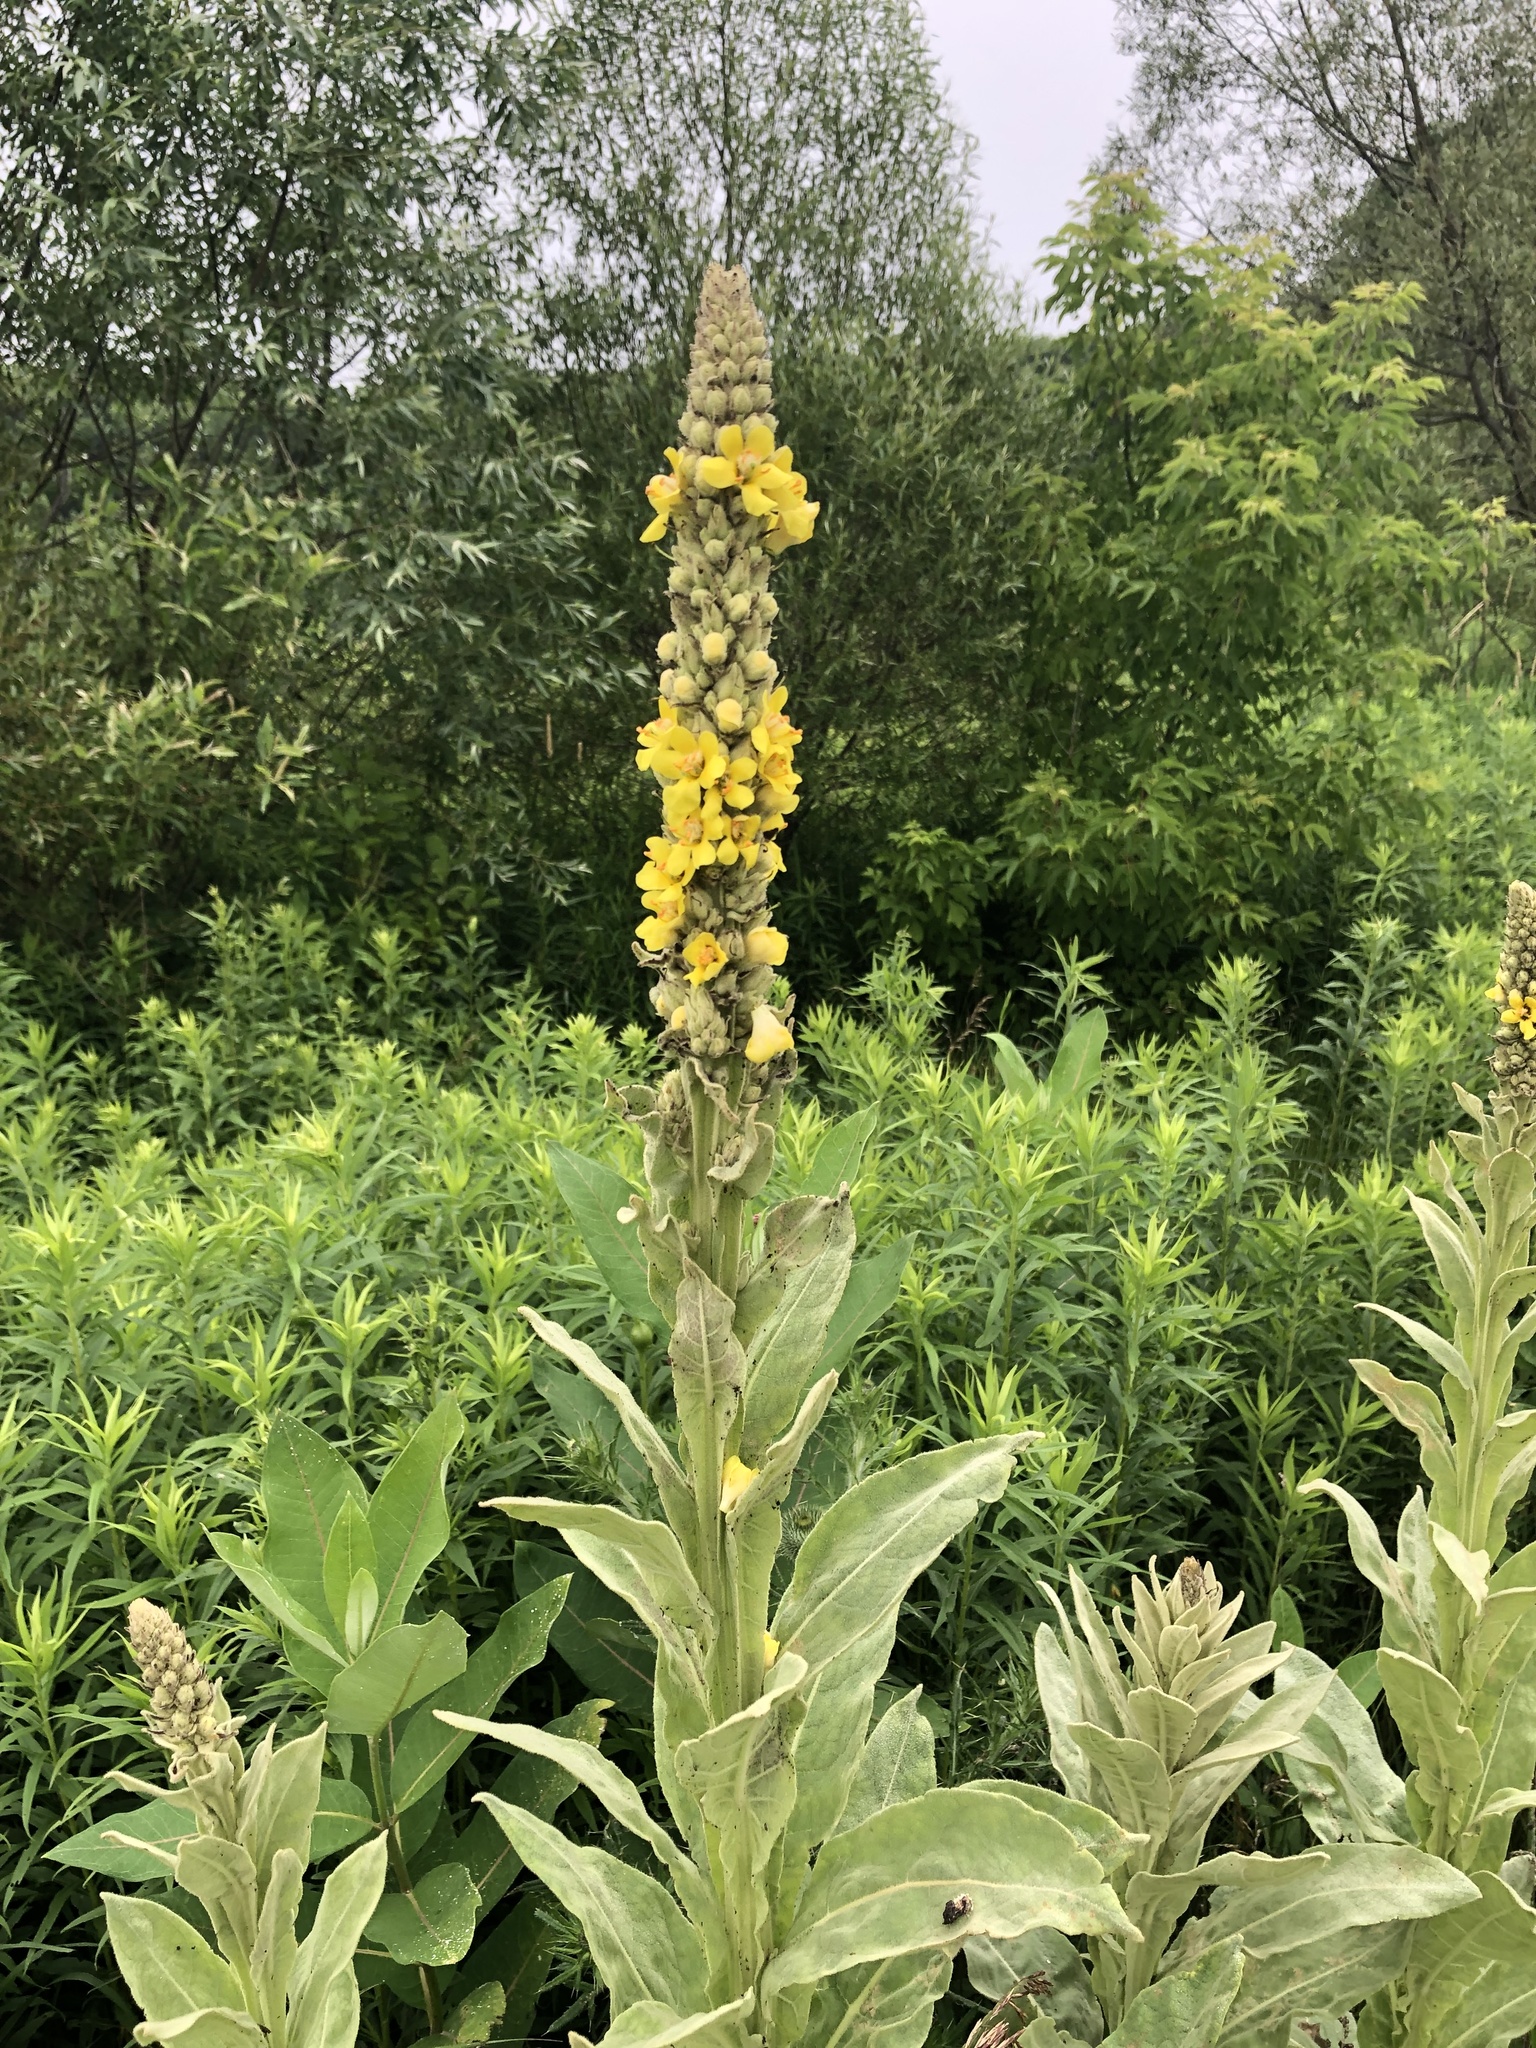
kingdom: Plantae
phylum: Tracheophyta
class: Magnoliopsida
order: Lamiales
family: Scrophulariaceae
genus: Verbascum
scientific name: Verbascum thapsus
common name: Common mullein
